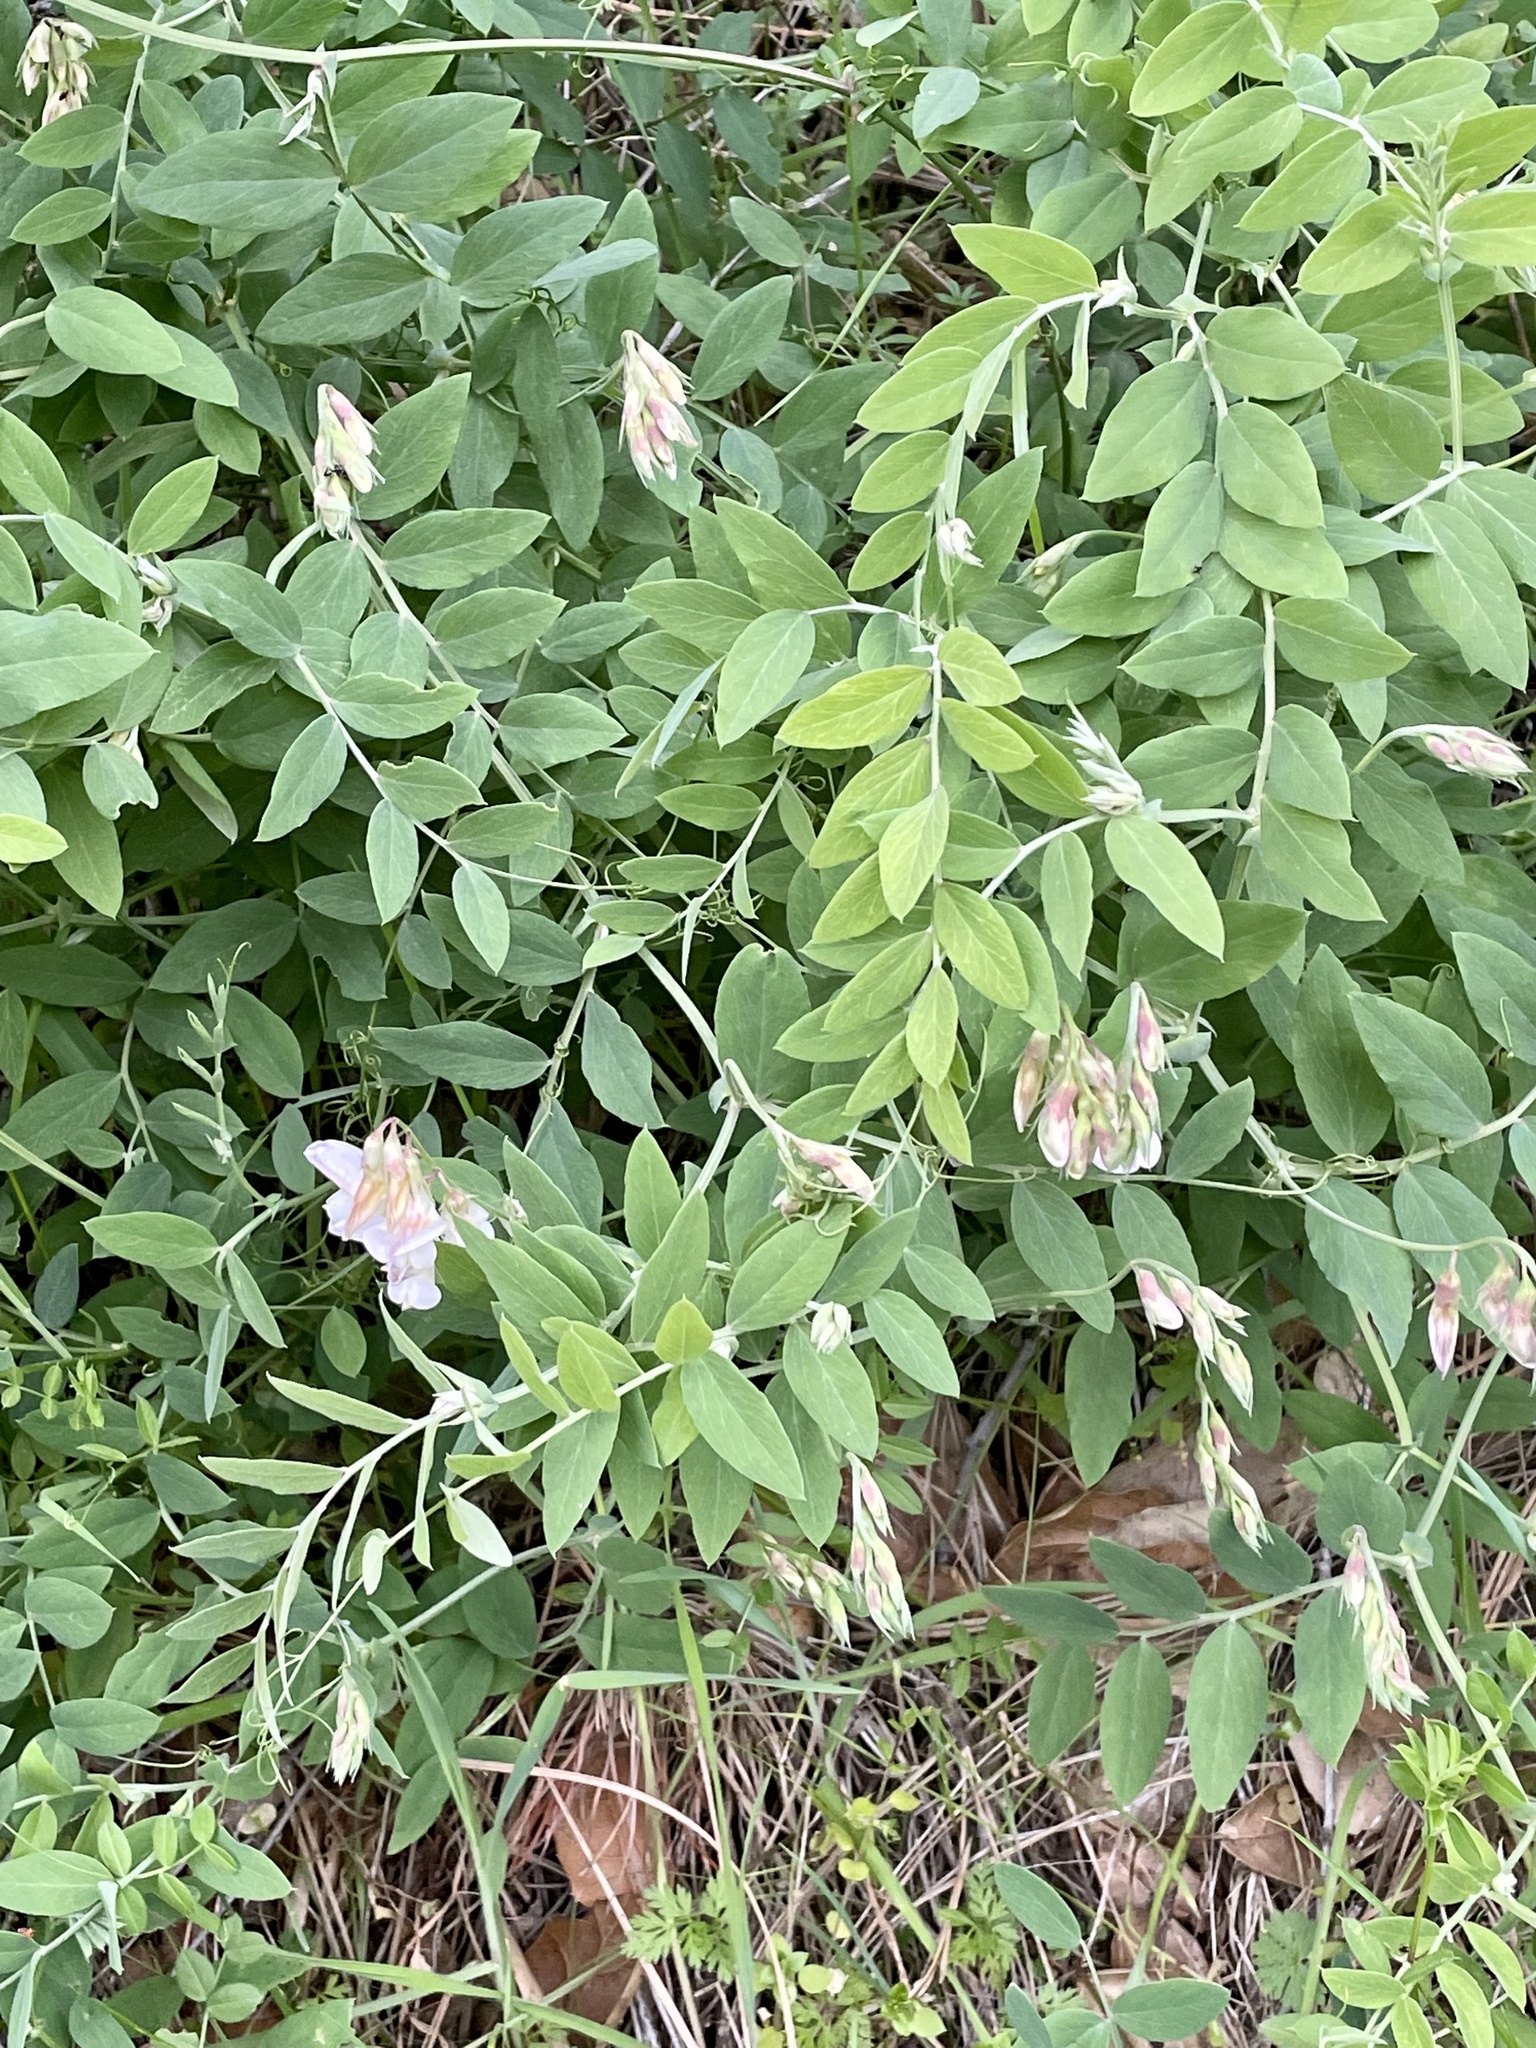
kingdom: Plantae
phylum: Tracheophyta
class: Magnoliopsida
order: Fabales
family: Fabaceae
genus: Lathyrus
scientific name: Lathyrus vestitus
